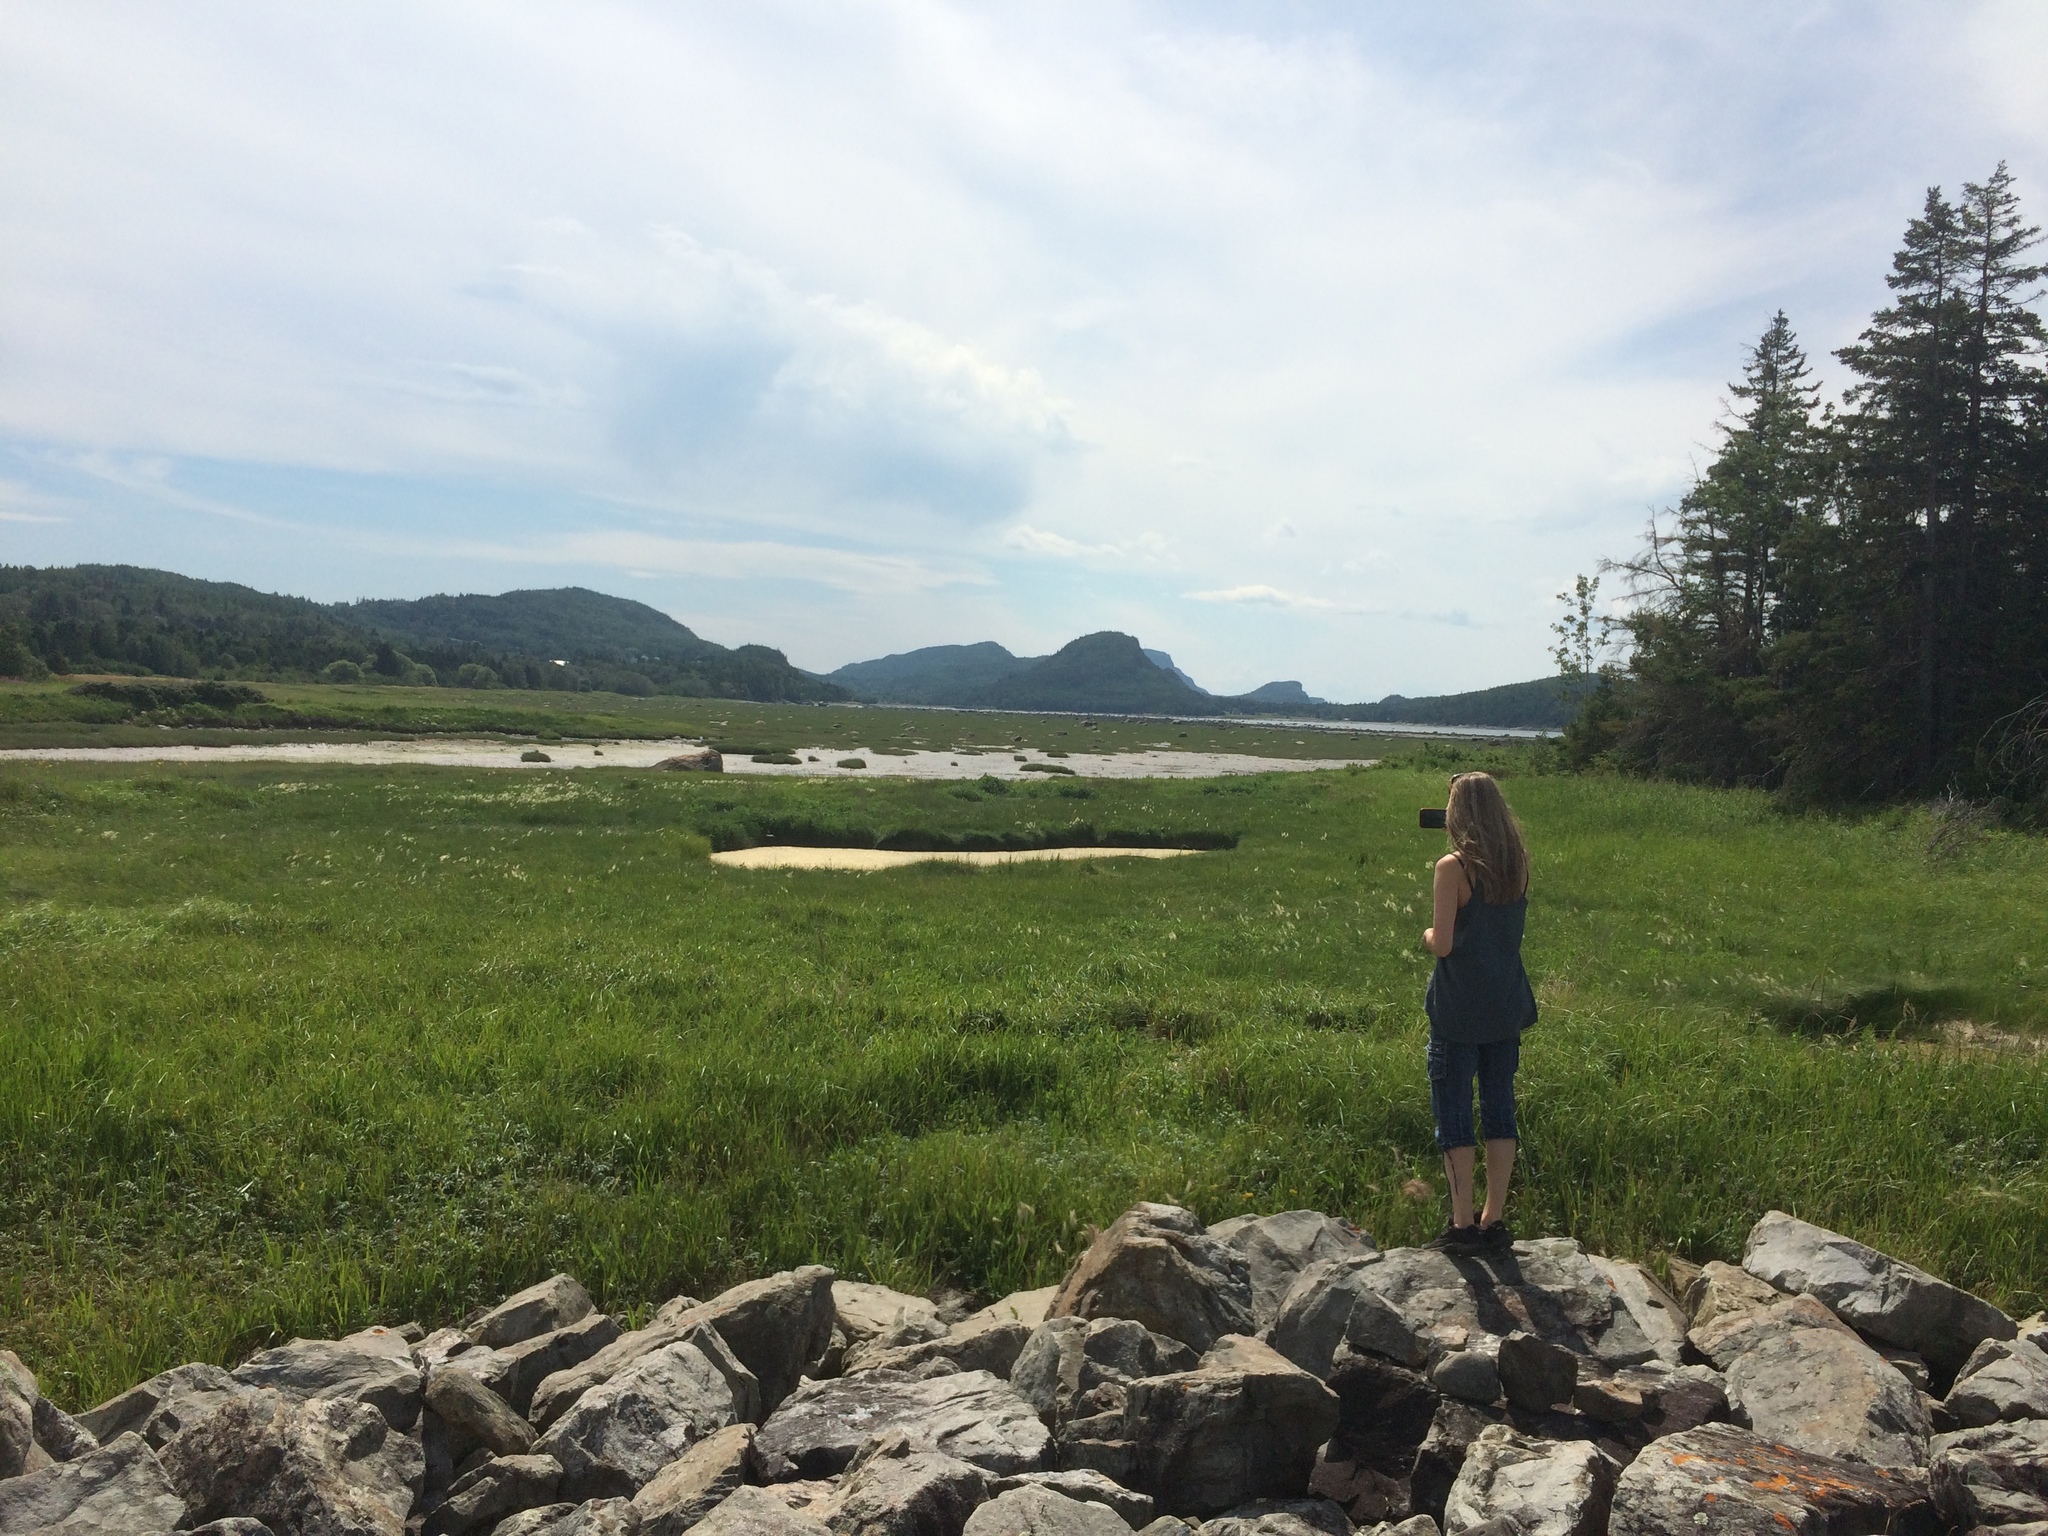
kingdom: Plantae
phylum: Tracheophyta
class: Magnoliopsida
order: Apiales
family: Apiaceae
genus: Ligusticum
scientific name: Ligusticum scothicum
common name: Beach lovage
